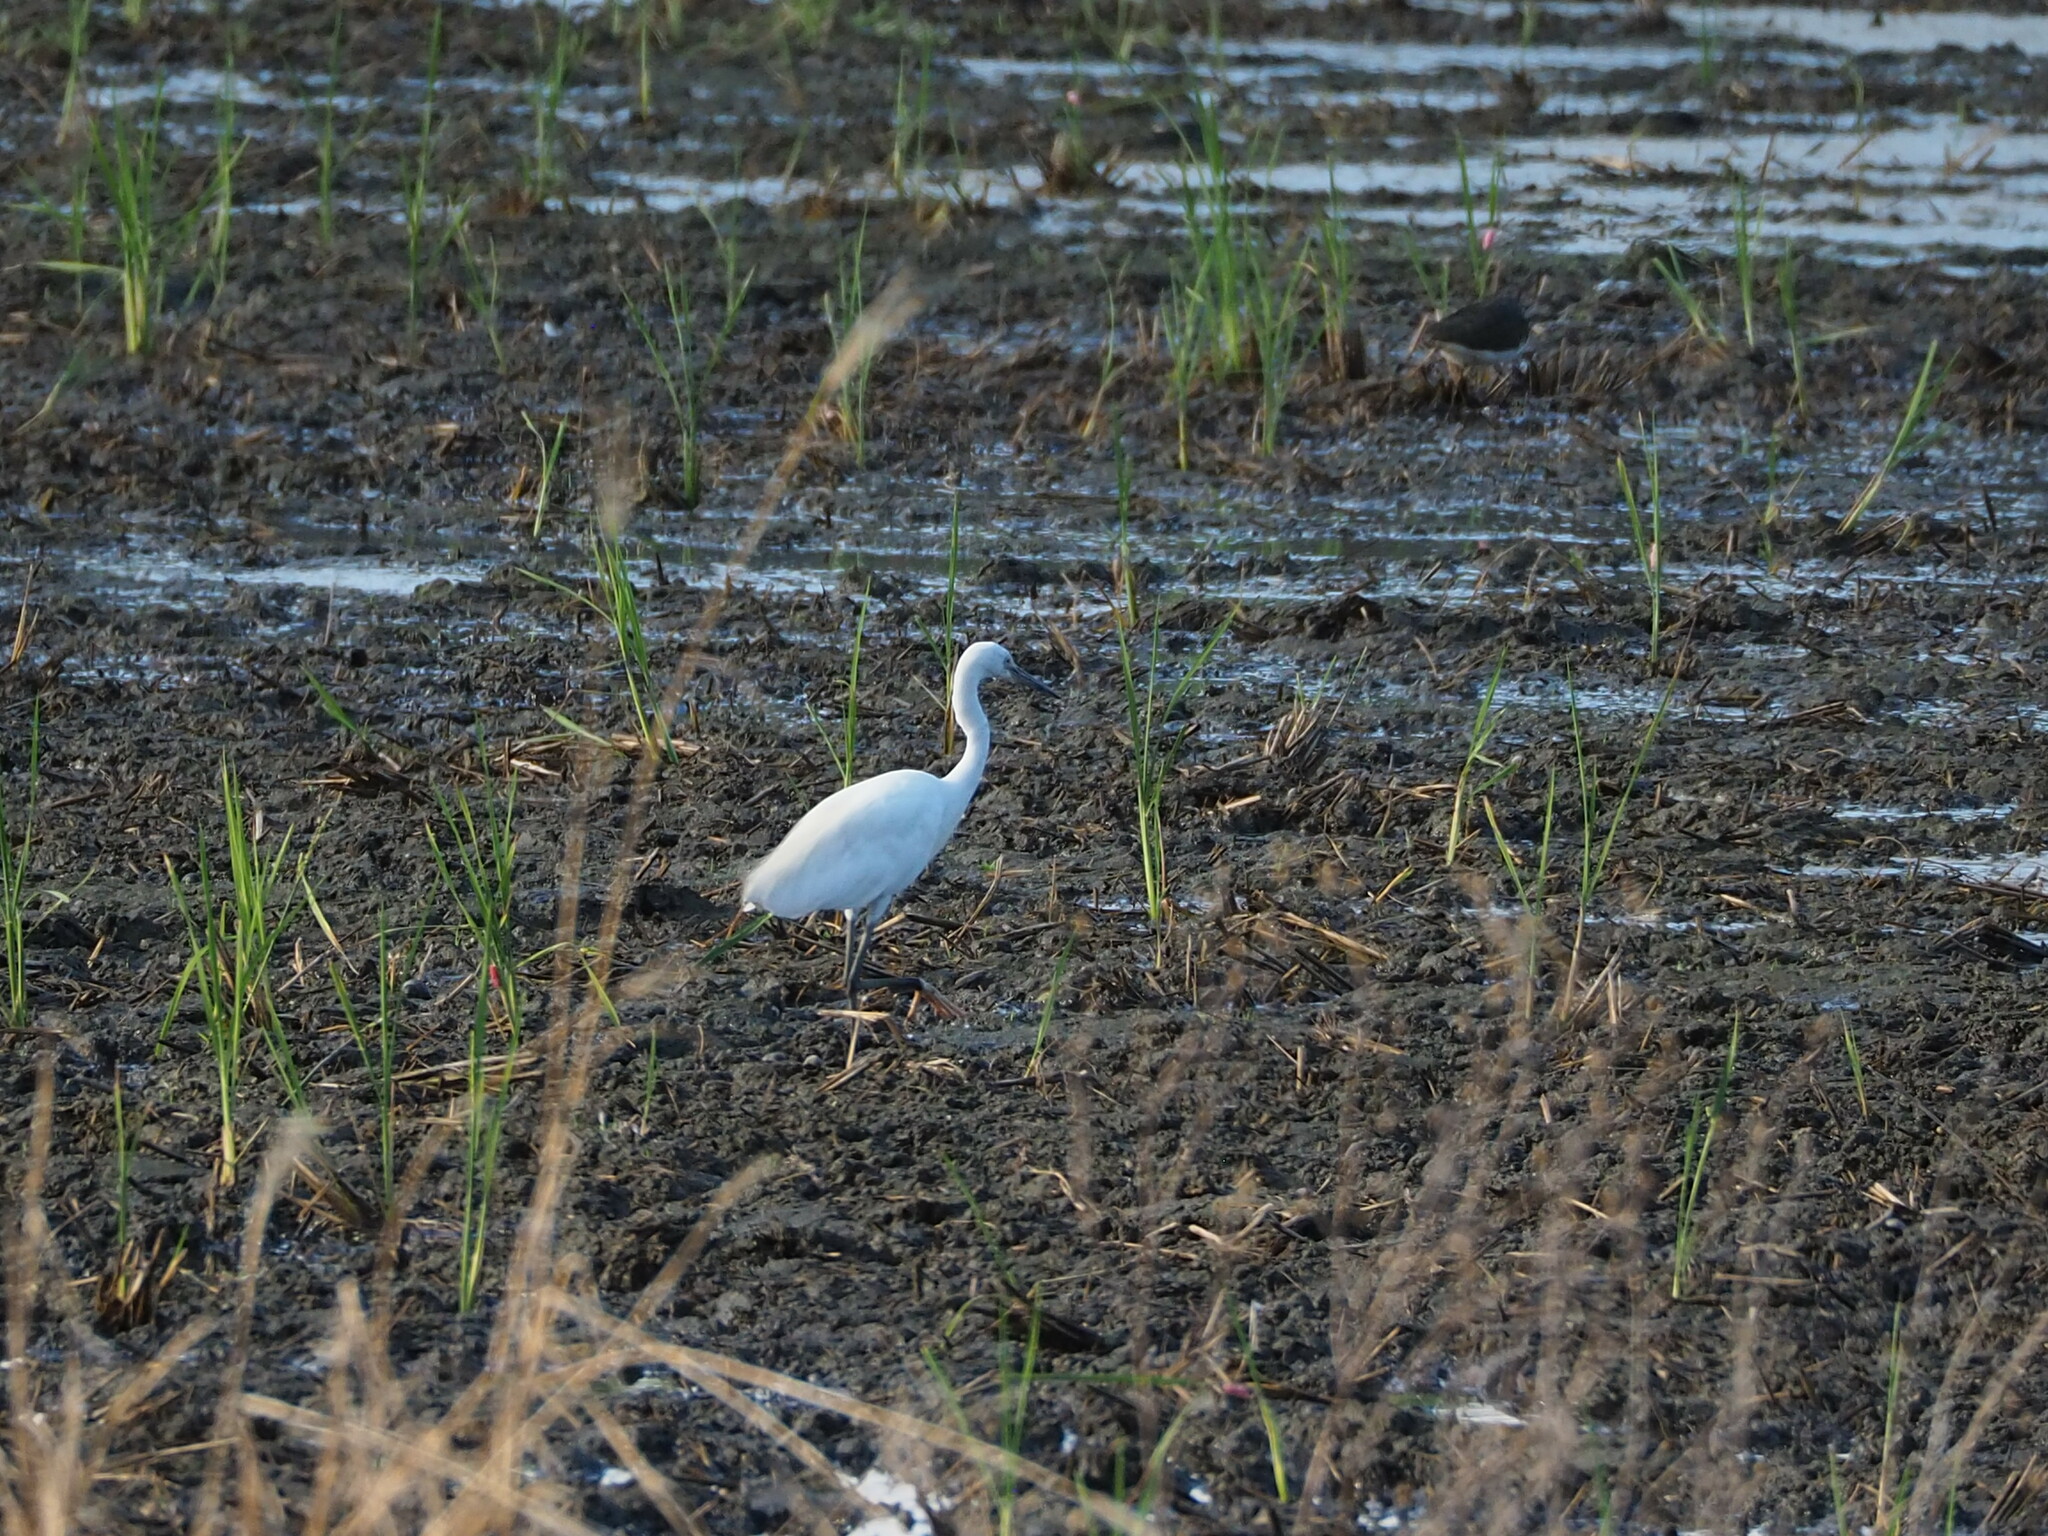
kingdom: Animalia
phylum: Chordata
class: Aves
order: Pelecaniformes
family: Ardeidae
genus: Egretta
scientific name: Egretta garzetta
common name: Little egret
